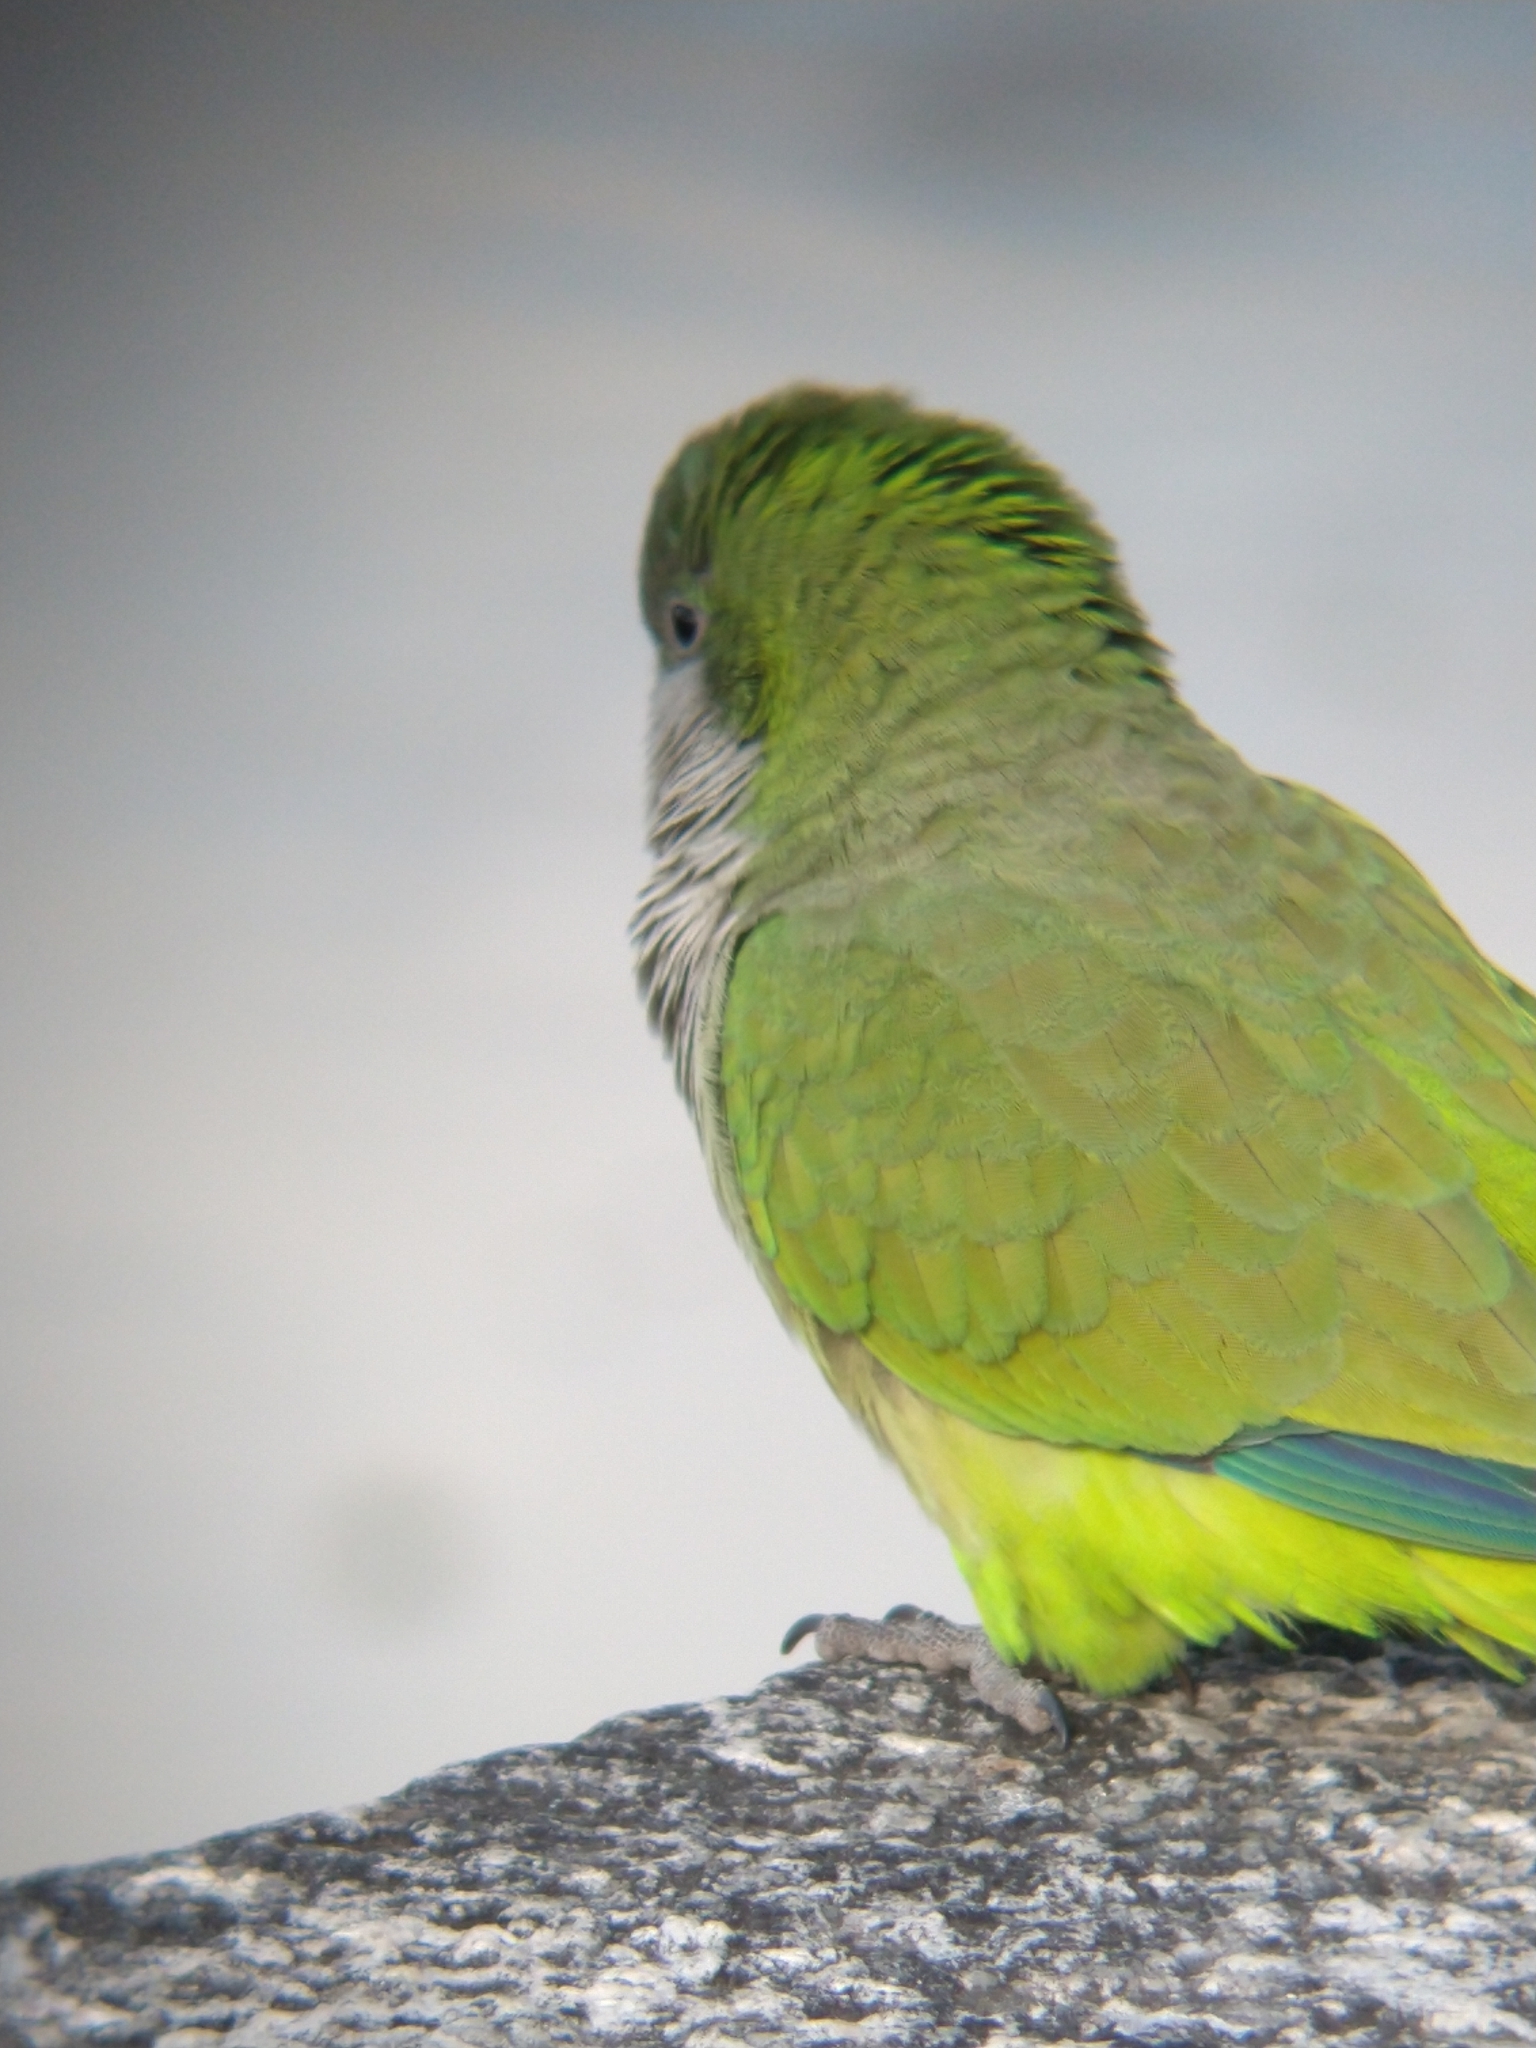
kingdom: Animalia
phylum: Chordata
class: Aves
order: Psittaciformes
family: Psittacidae
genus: Myiopsitta
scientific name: Myiopsitta monachus
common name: Monk parakeet
